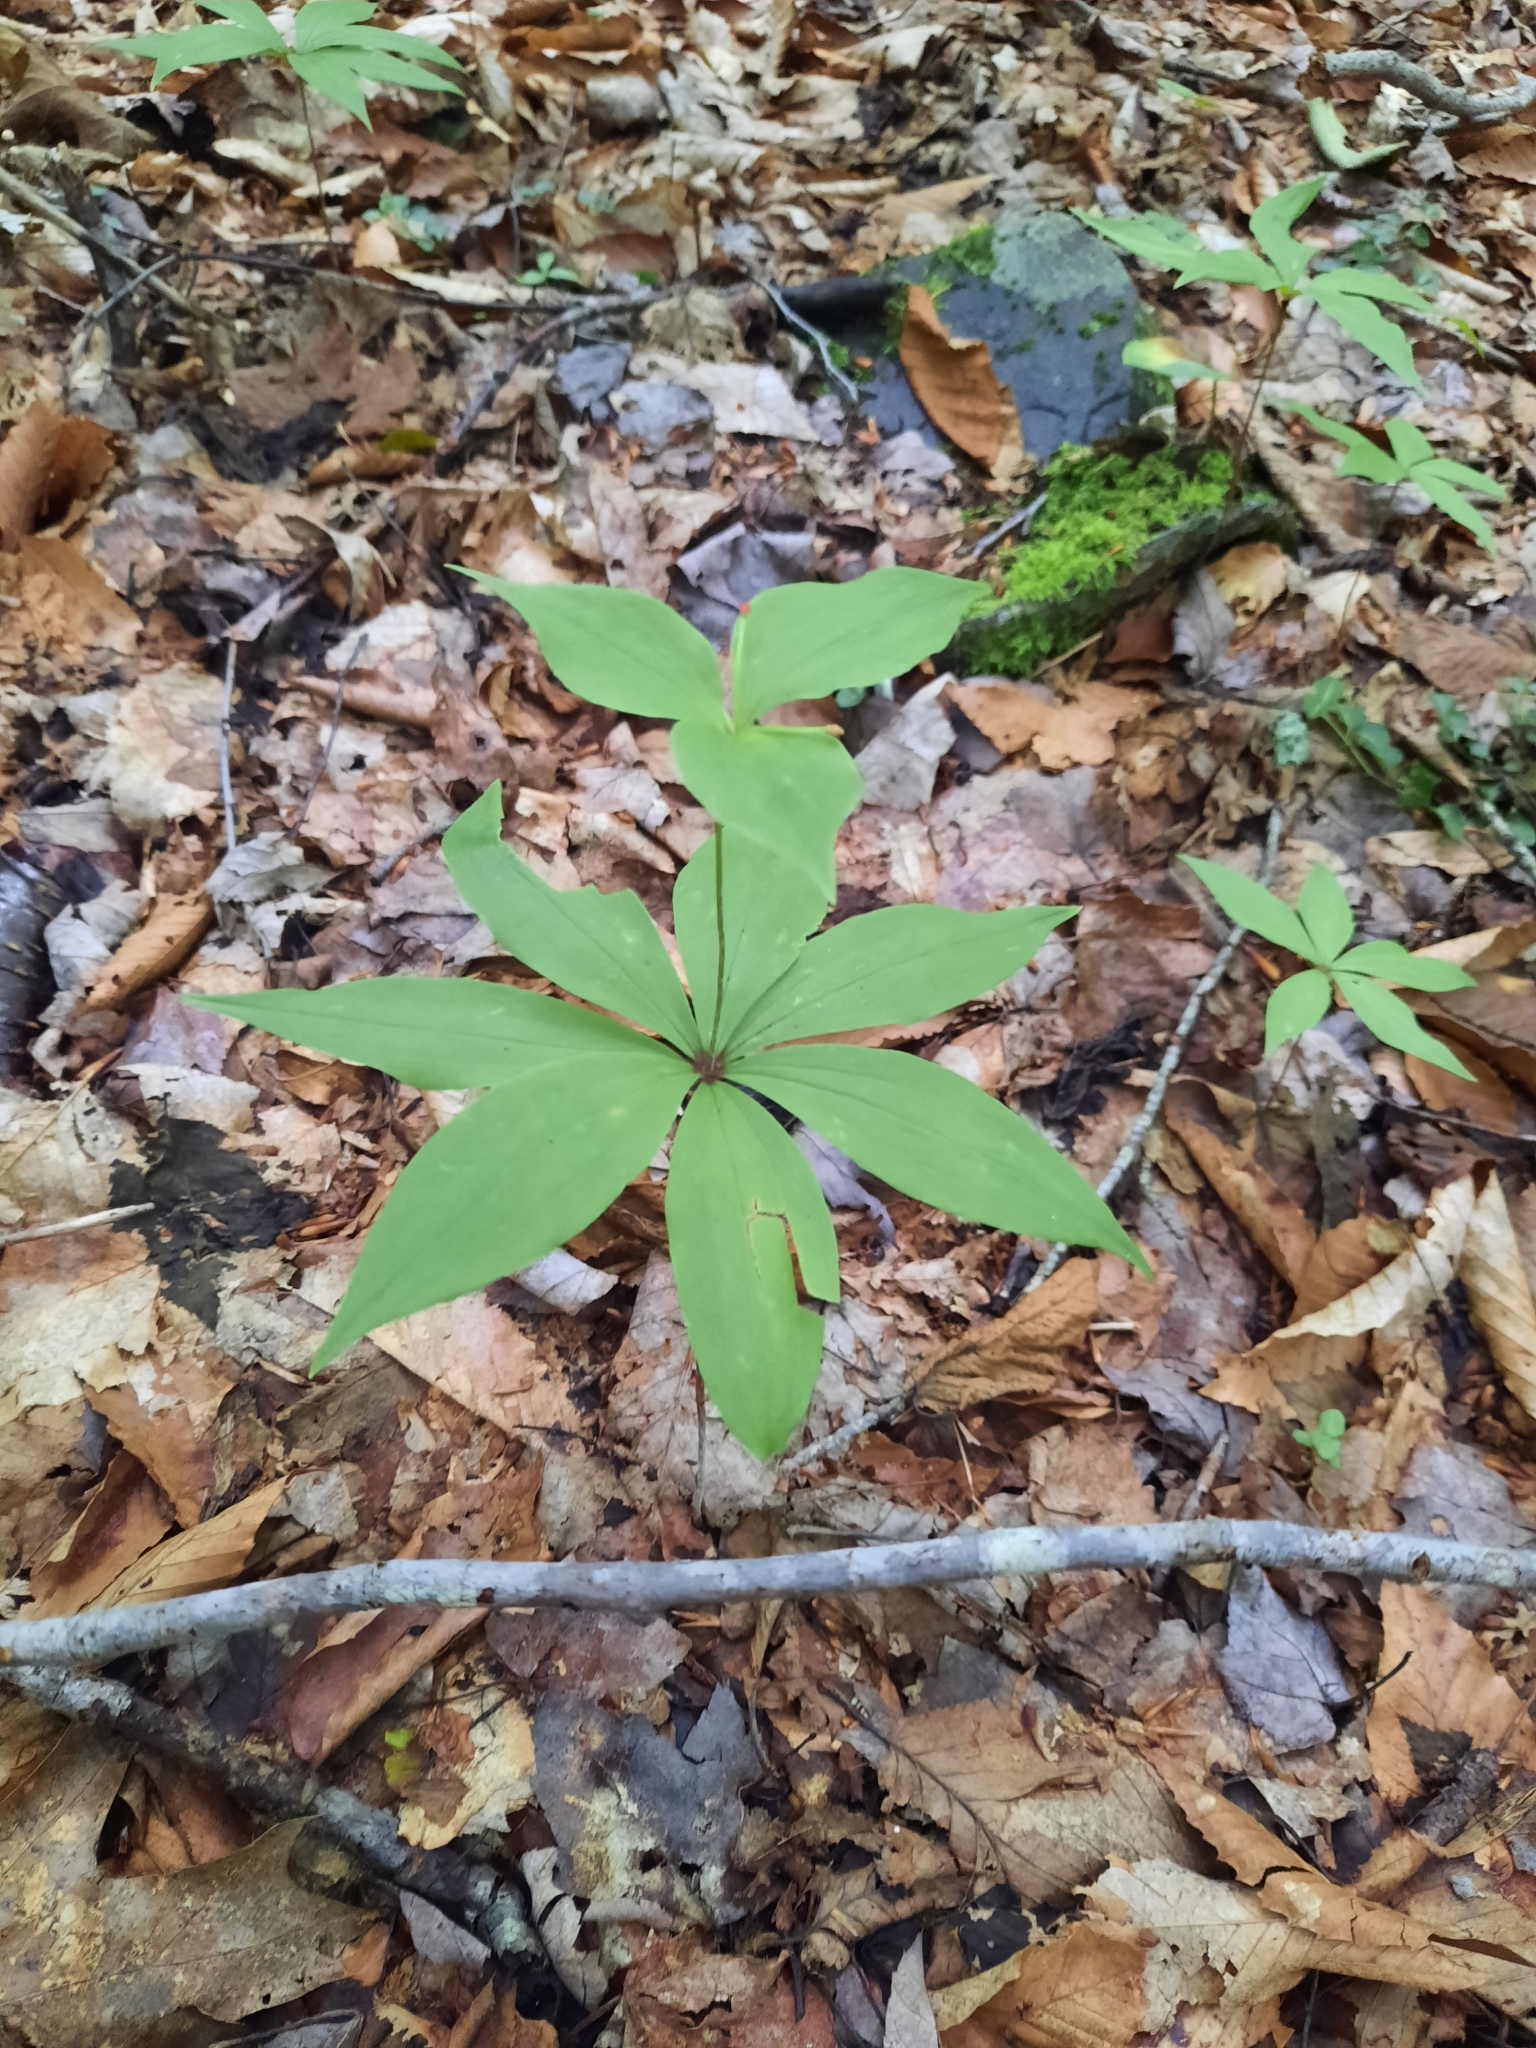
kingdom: Plantae
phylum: Tracheophyta
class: Liliopsida
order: Liliales
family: Liliaceae
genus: Medeola
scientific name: Medeola virginiana
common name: Indian cucumber-root
